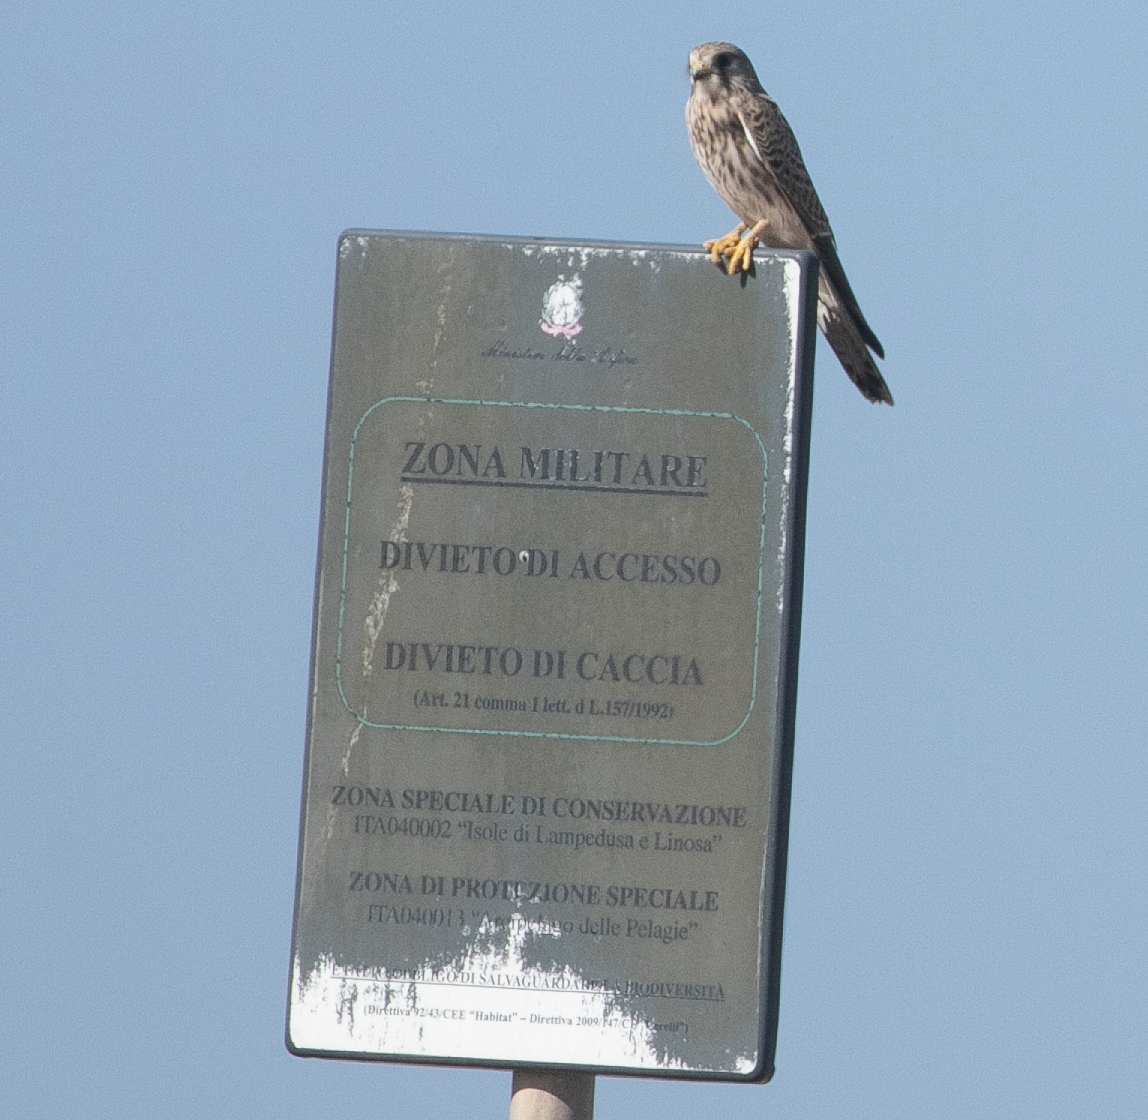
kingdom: Animalia
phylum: Chordata
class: Aves
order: Falconiformes
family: Falconidae
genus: Falco
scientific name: Falco tinnunculus
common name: Common kestrel
